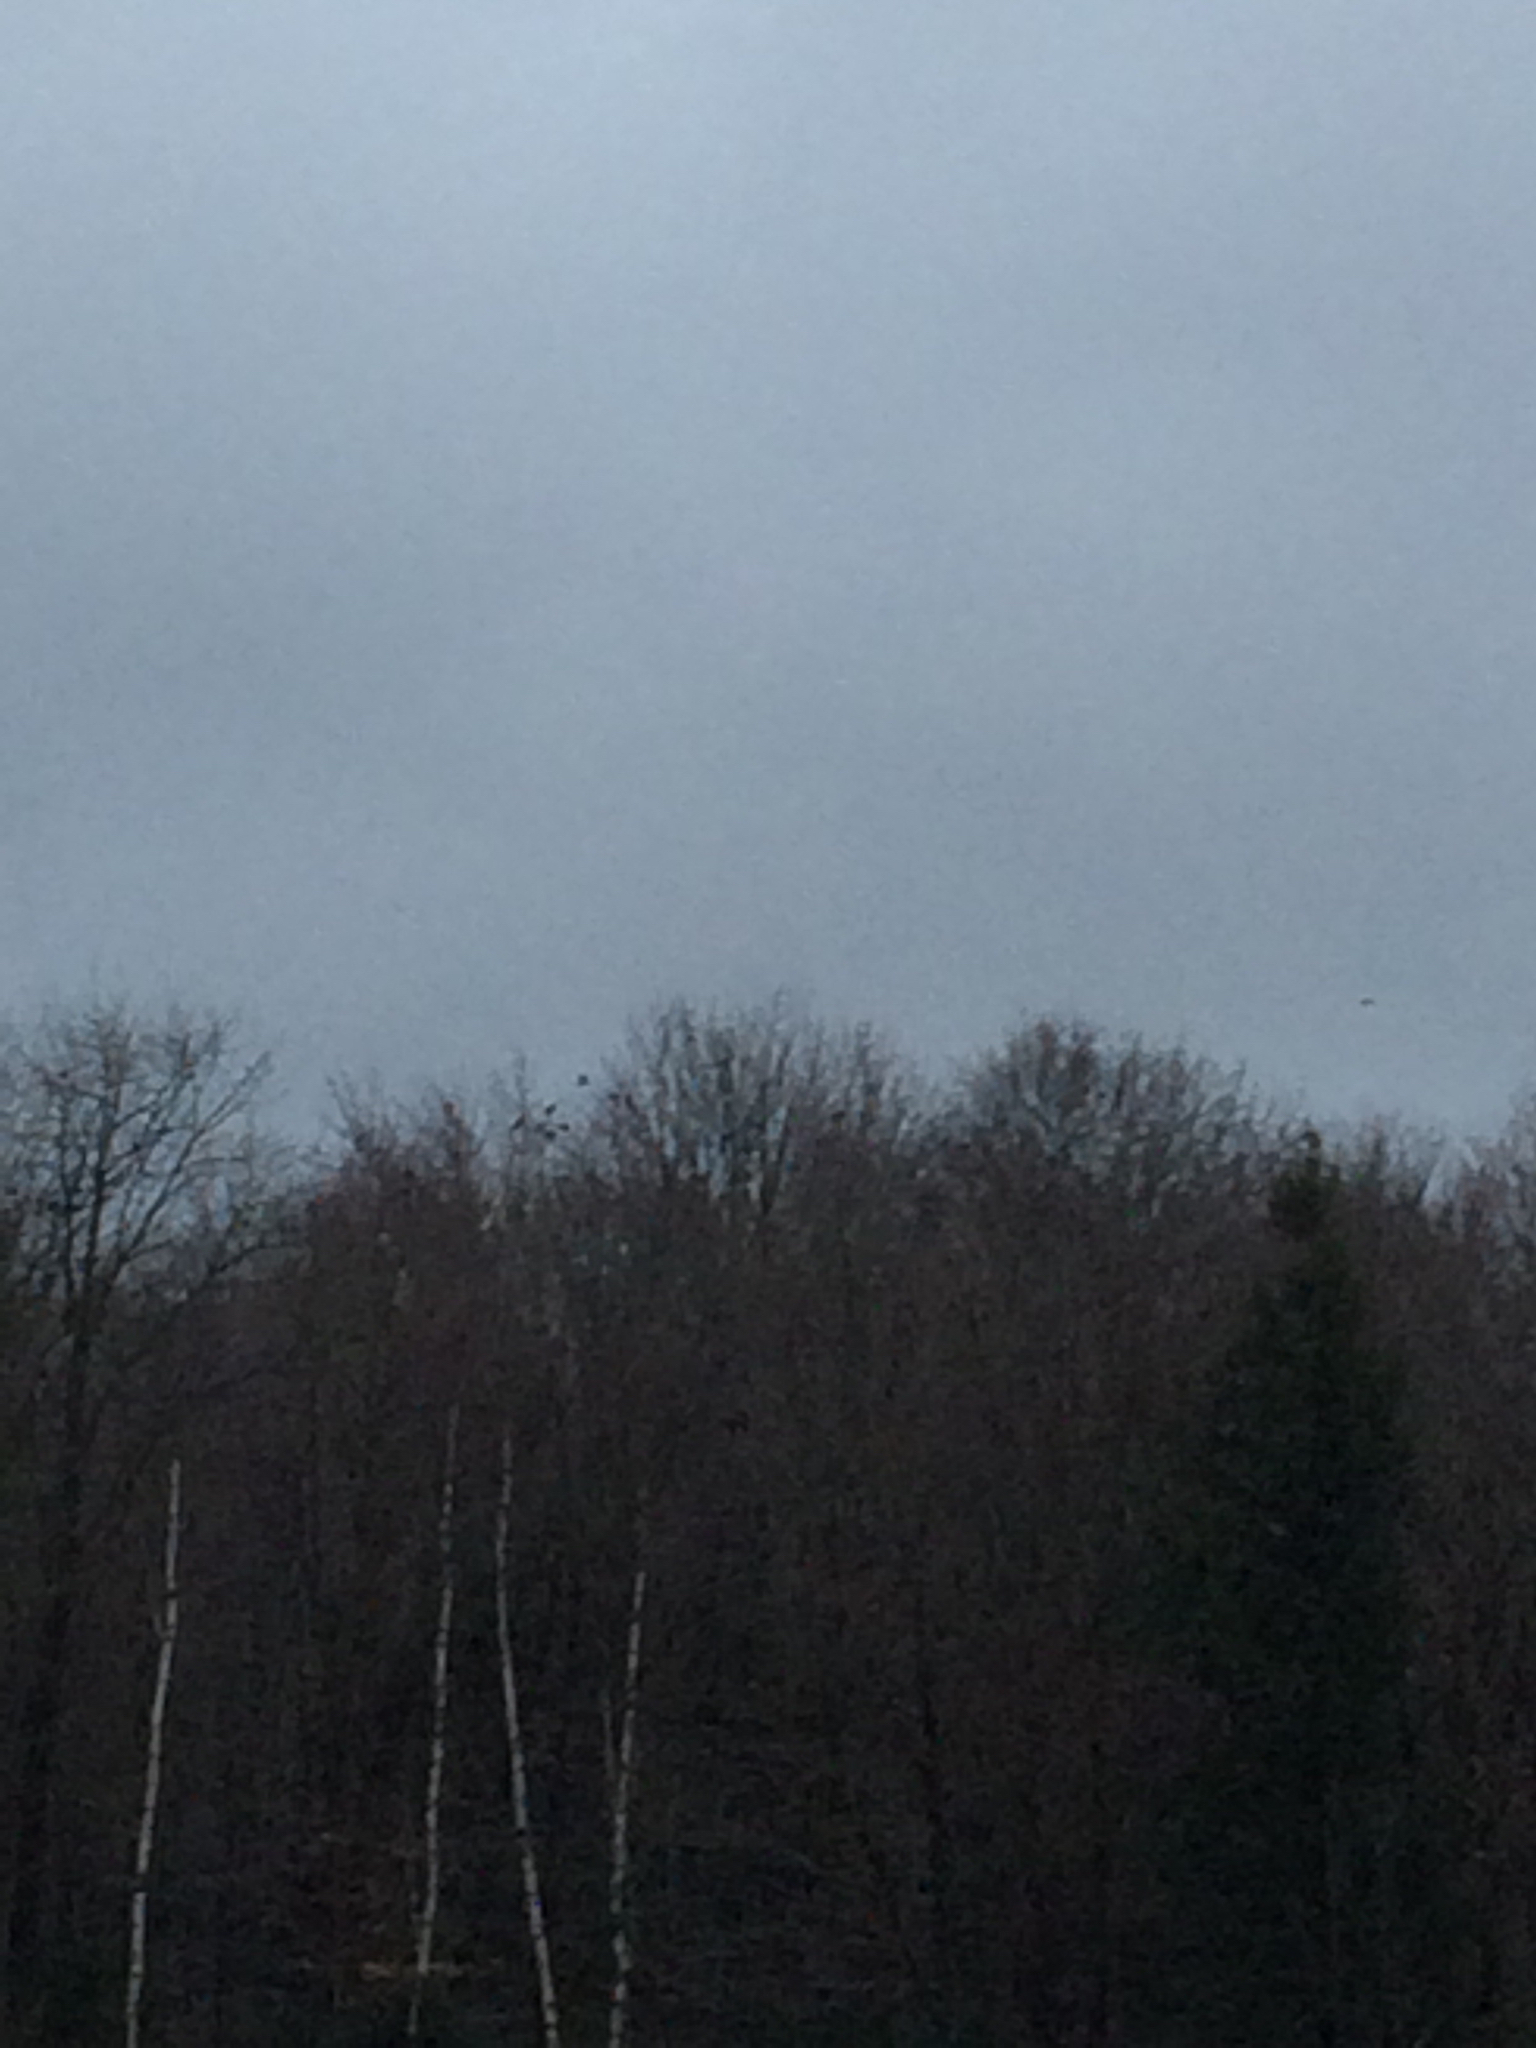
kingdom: Animalia
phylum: Chordata
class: Aves
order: Passeriformes
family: Corvidae
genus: Corvus
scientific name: Corvus brachyrhynchos
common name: American crow
